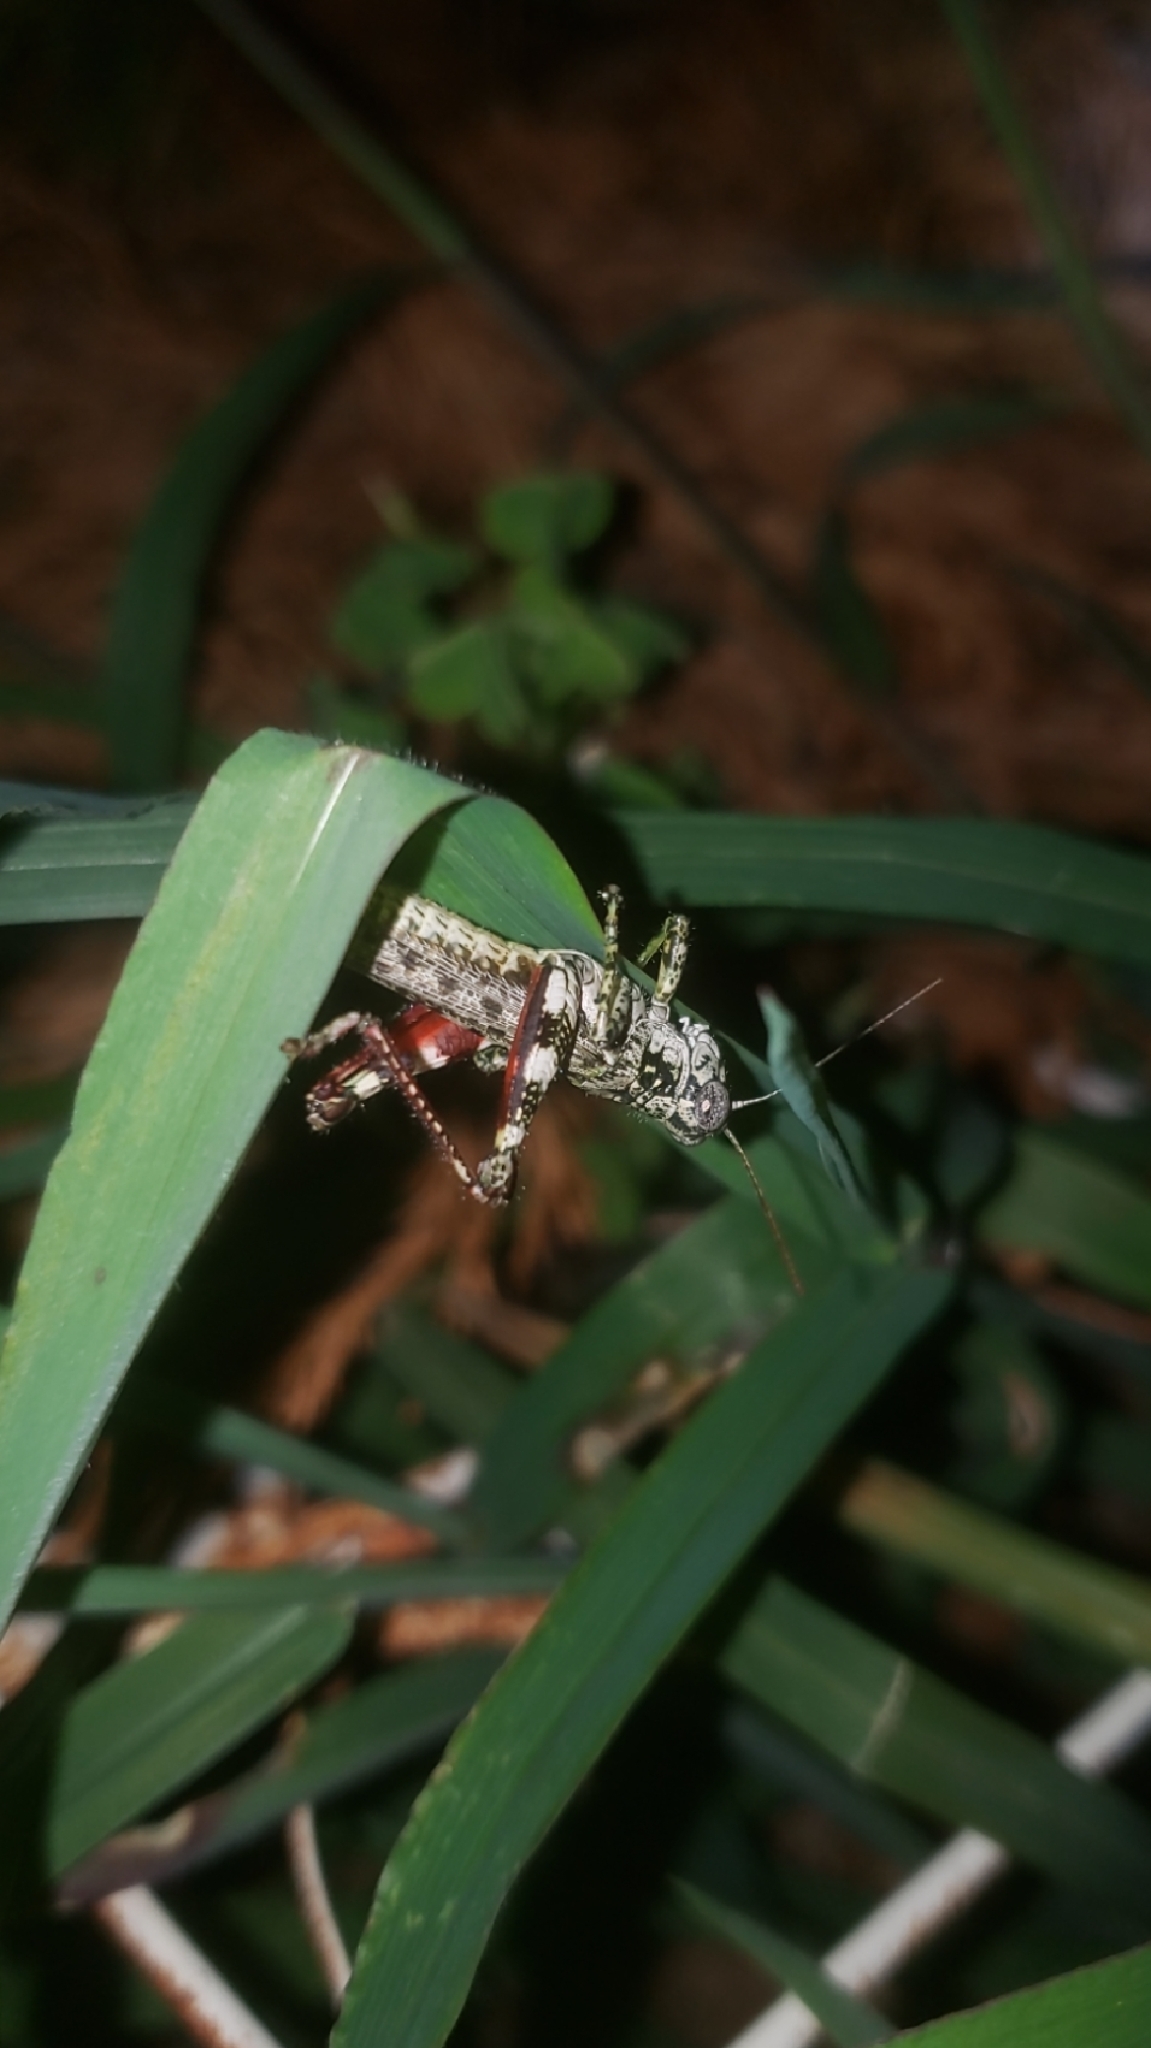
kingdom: Animalia
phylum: Arthropoda
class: Insecta
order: Orthoptera
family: Acrididae
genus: Melanoplus
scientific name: Melanoplus punctulatus
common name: Pine-tree spur-throat grasshopper
